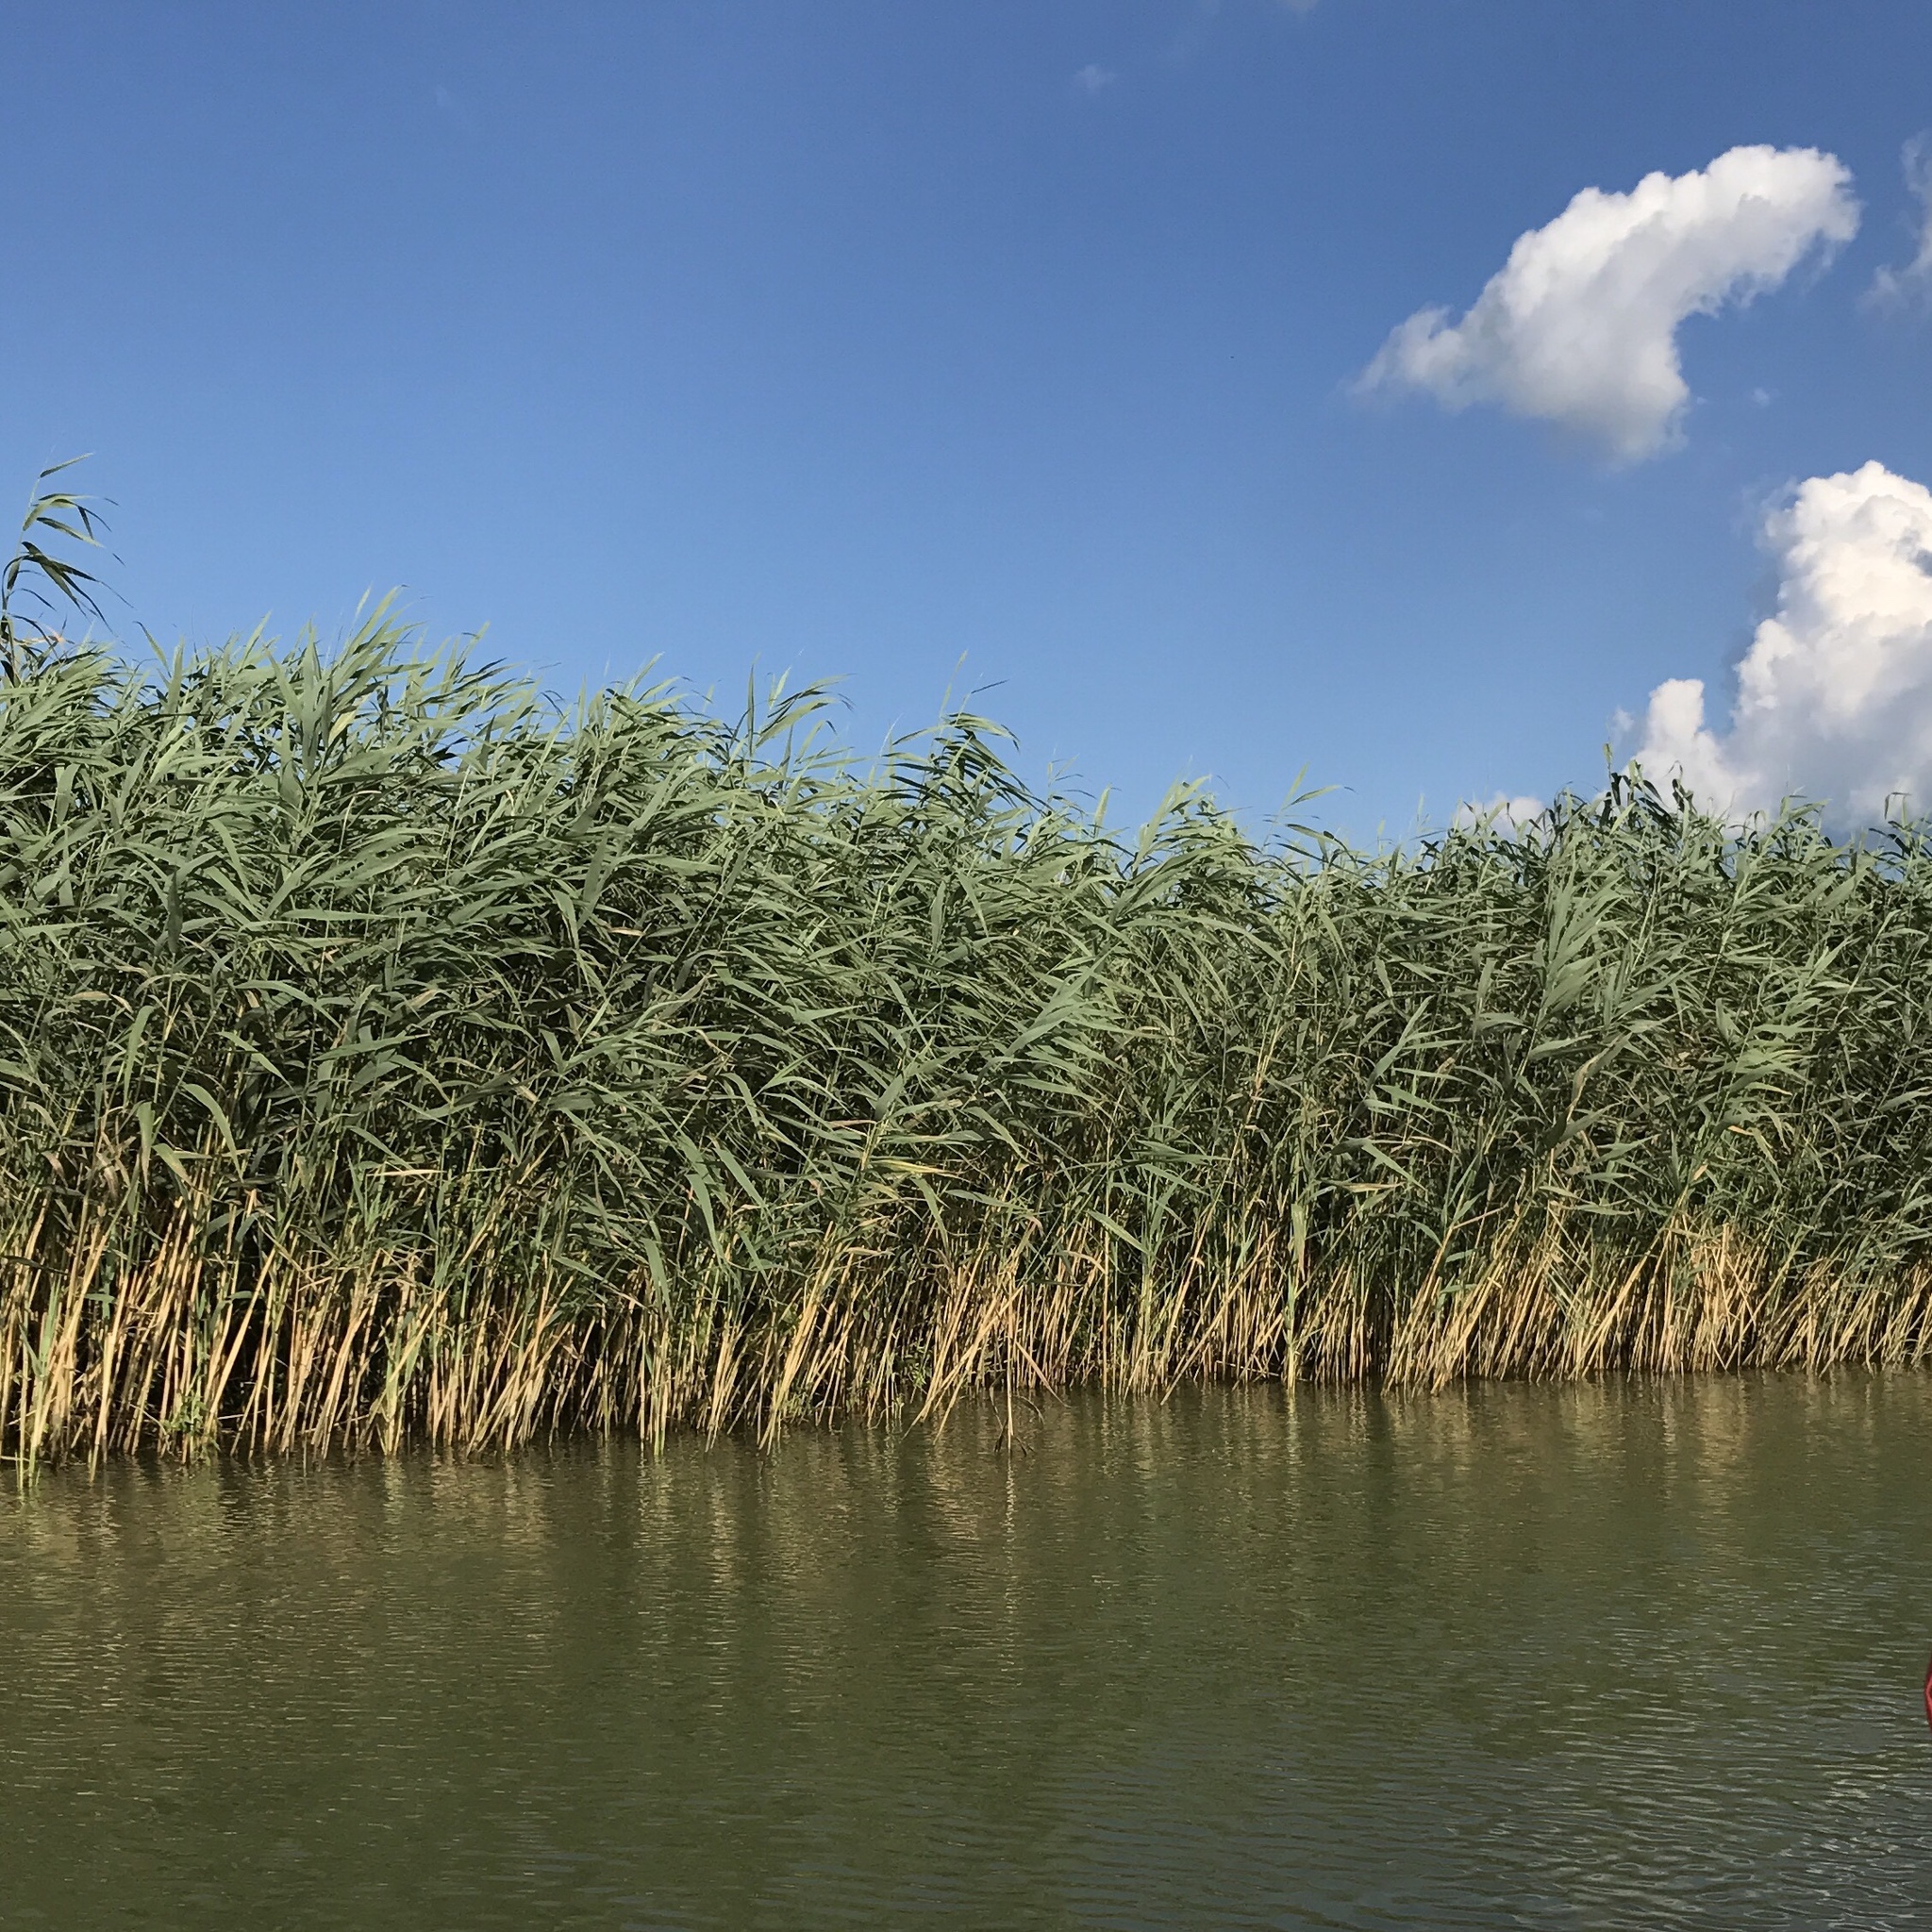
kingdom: Plantae
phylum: Tracheophyta
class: Liliopsida
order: Poales
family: Poaceae
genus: Phragmites
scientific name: Phragmites australis
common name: Common reed
